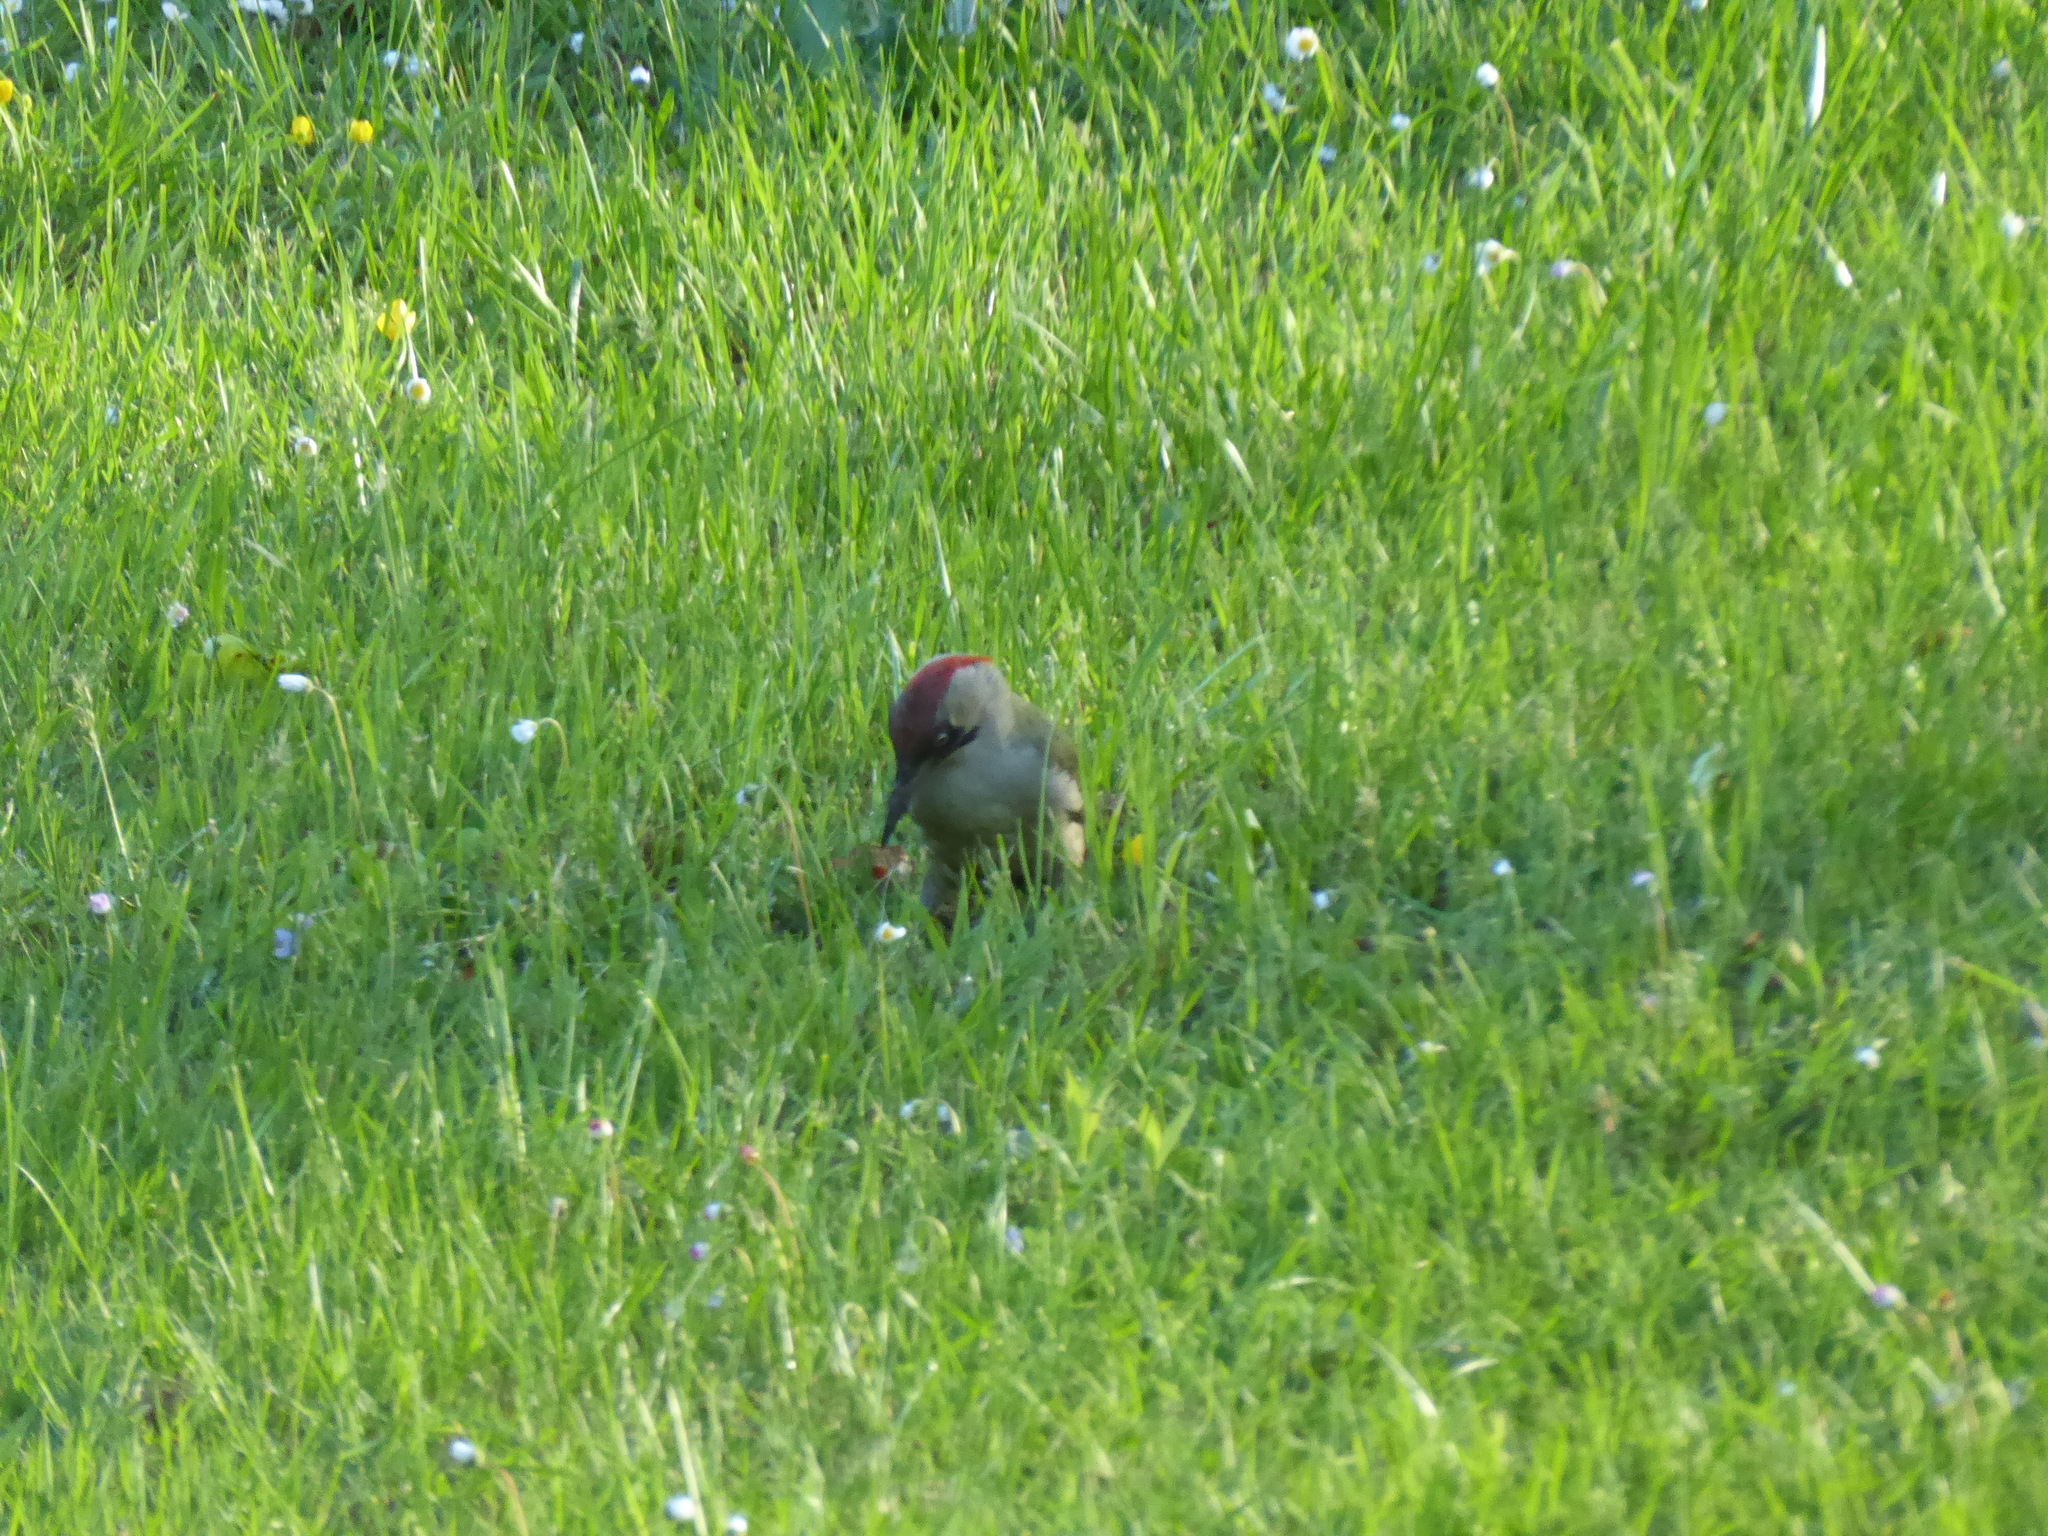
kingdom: Animalia
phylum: Chordata
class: Aves
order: Piciformes
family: Picidae
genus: Picus
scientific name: Picus viridis
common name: European green woodpecker
